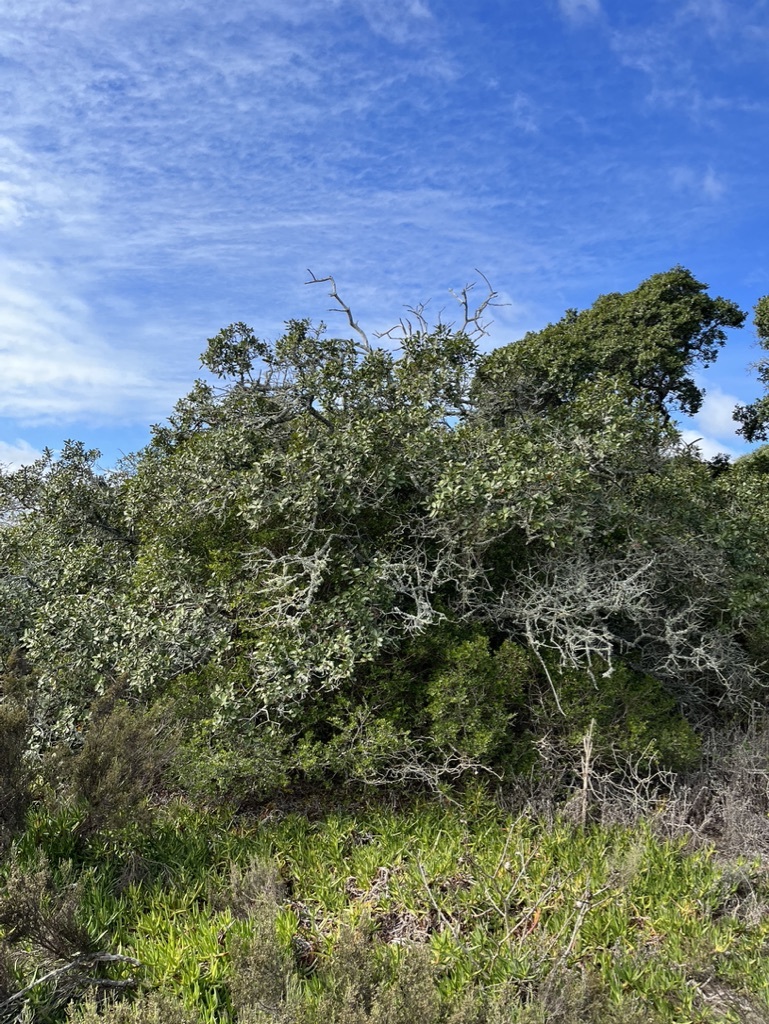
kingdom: Plantae
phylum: Tracheophyta
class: Magnoliopsida
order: Ericales
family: Sapotaceae
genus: Sideroxylon
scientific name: Sideroxylon inerme
